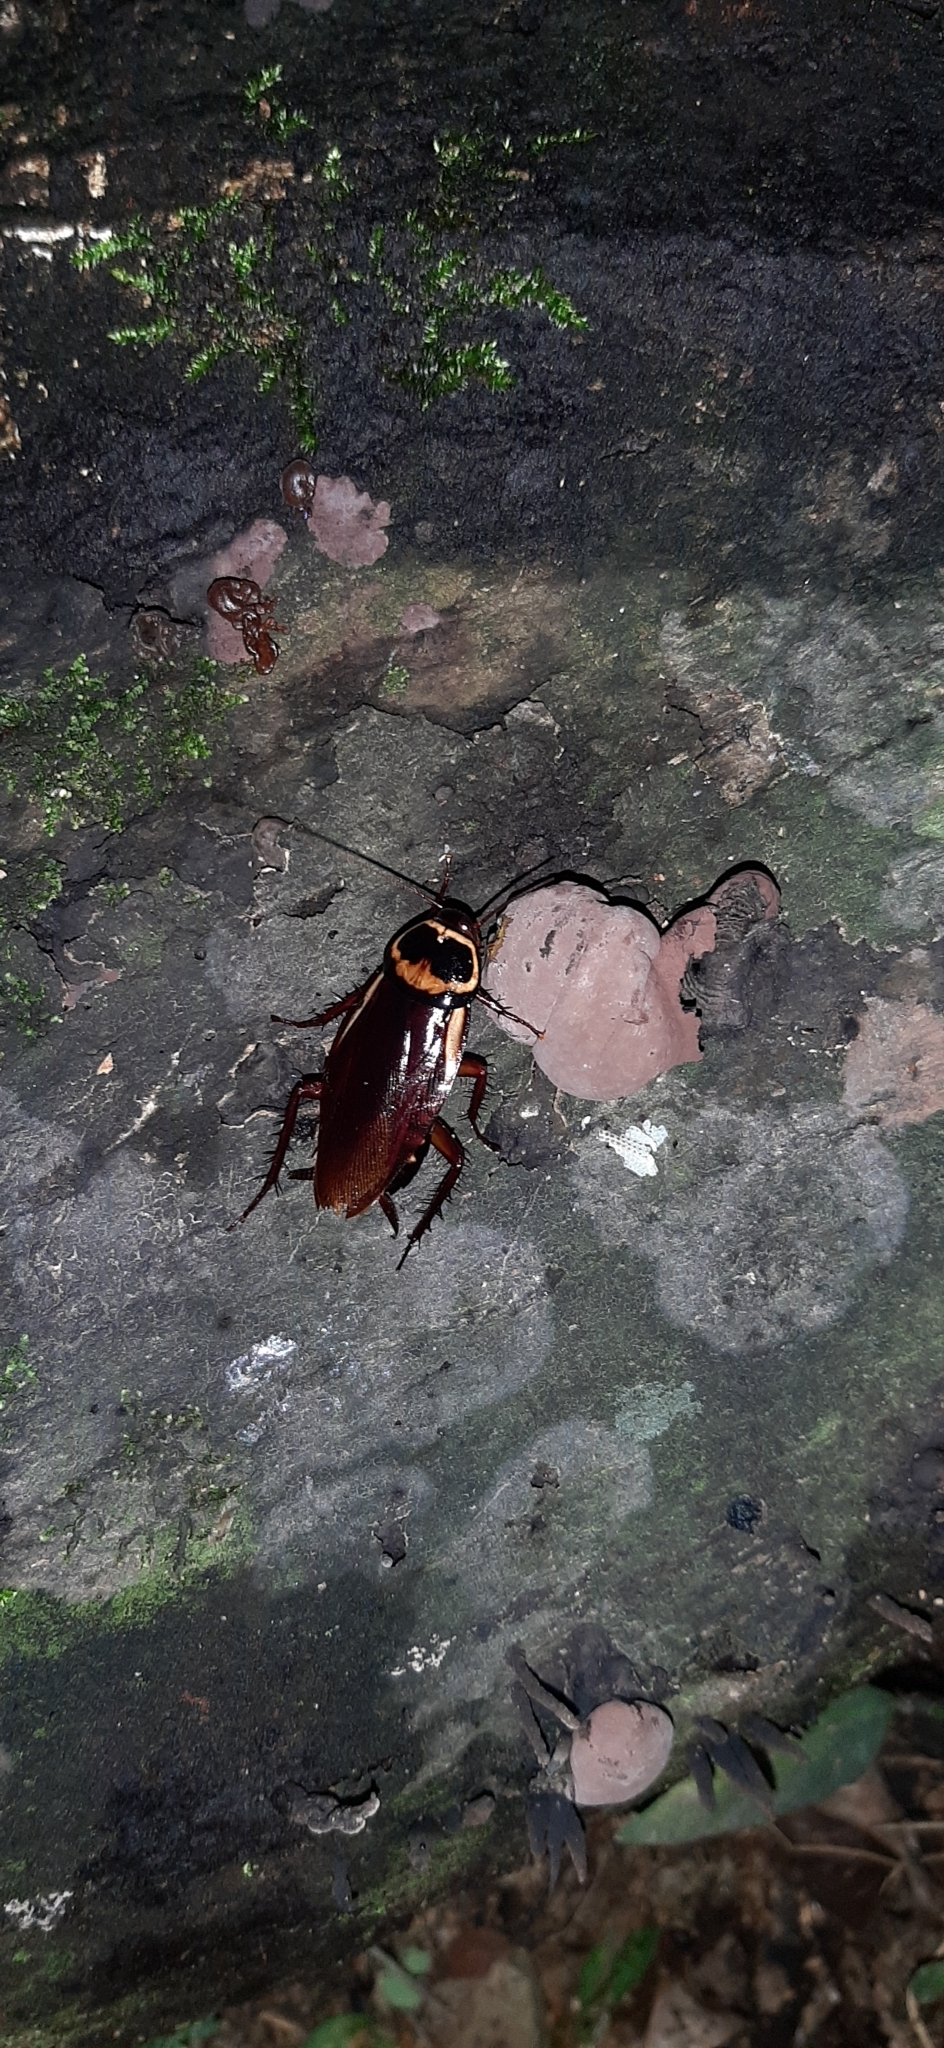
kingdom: Animalia
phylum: Arthropoda
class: Insecta
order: Blattodea
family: Blattidae
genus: Periplaneta
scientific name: Periplaneta americana
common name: American cockroach
